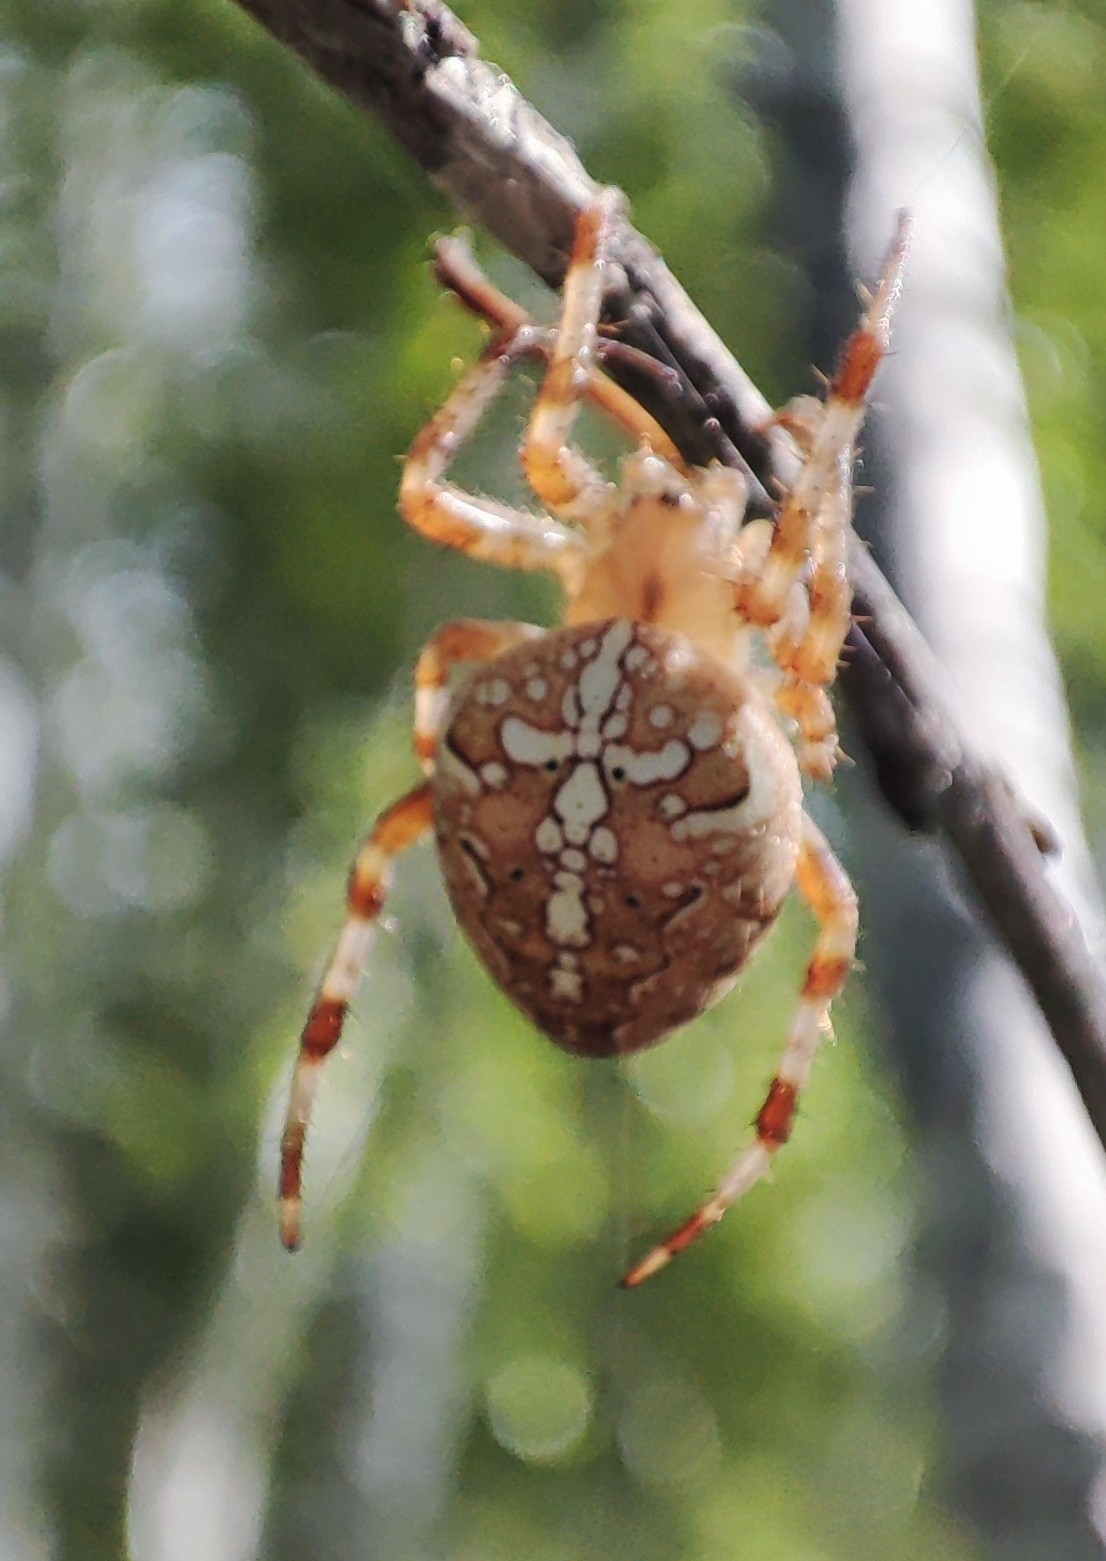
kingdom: Animalia
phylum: Arthropoda
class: Arachnida
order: Araneae
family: Araneidae
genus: Araneus
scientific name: Araneus diadematus
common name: Cross orbweaver
